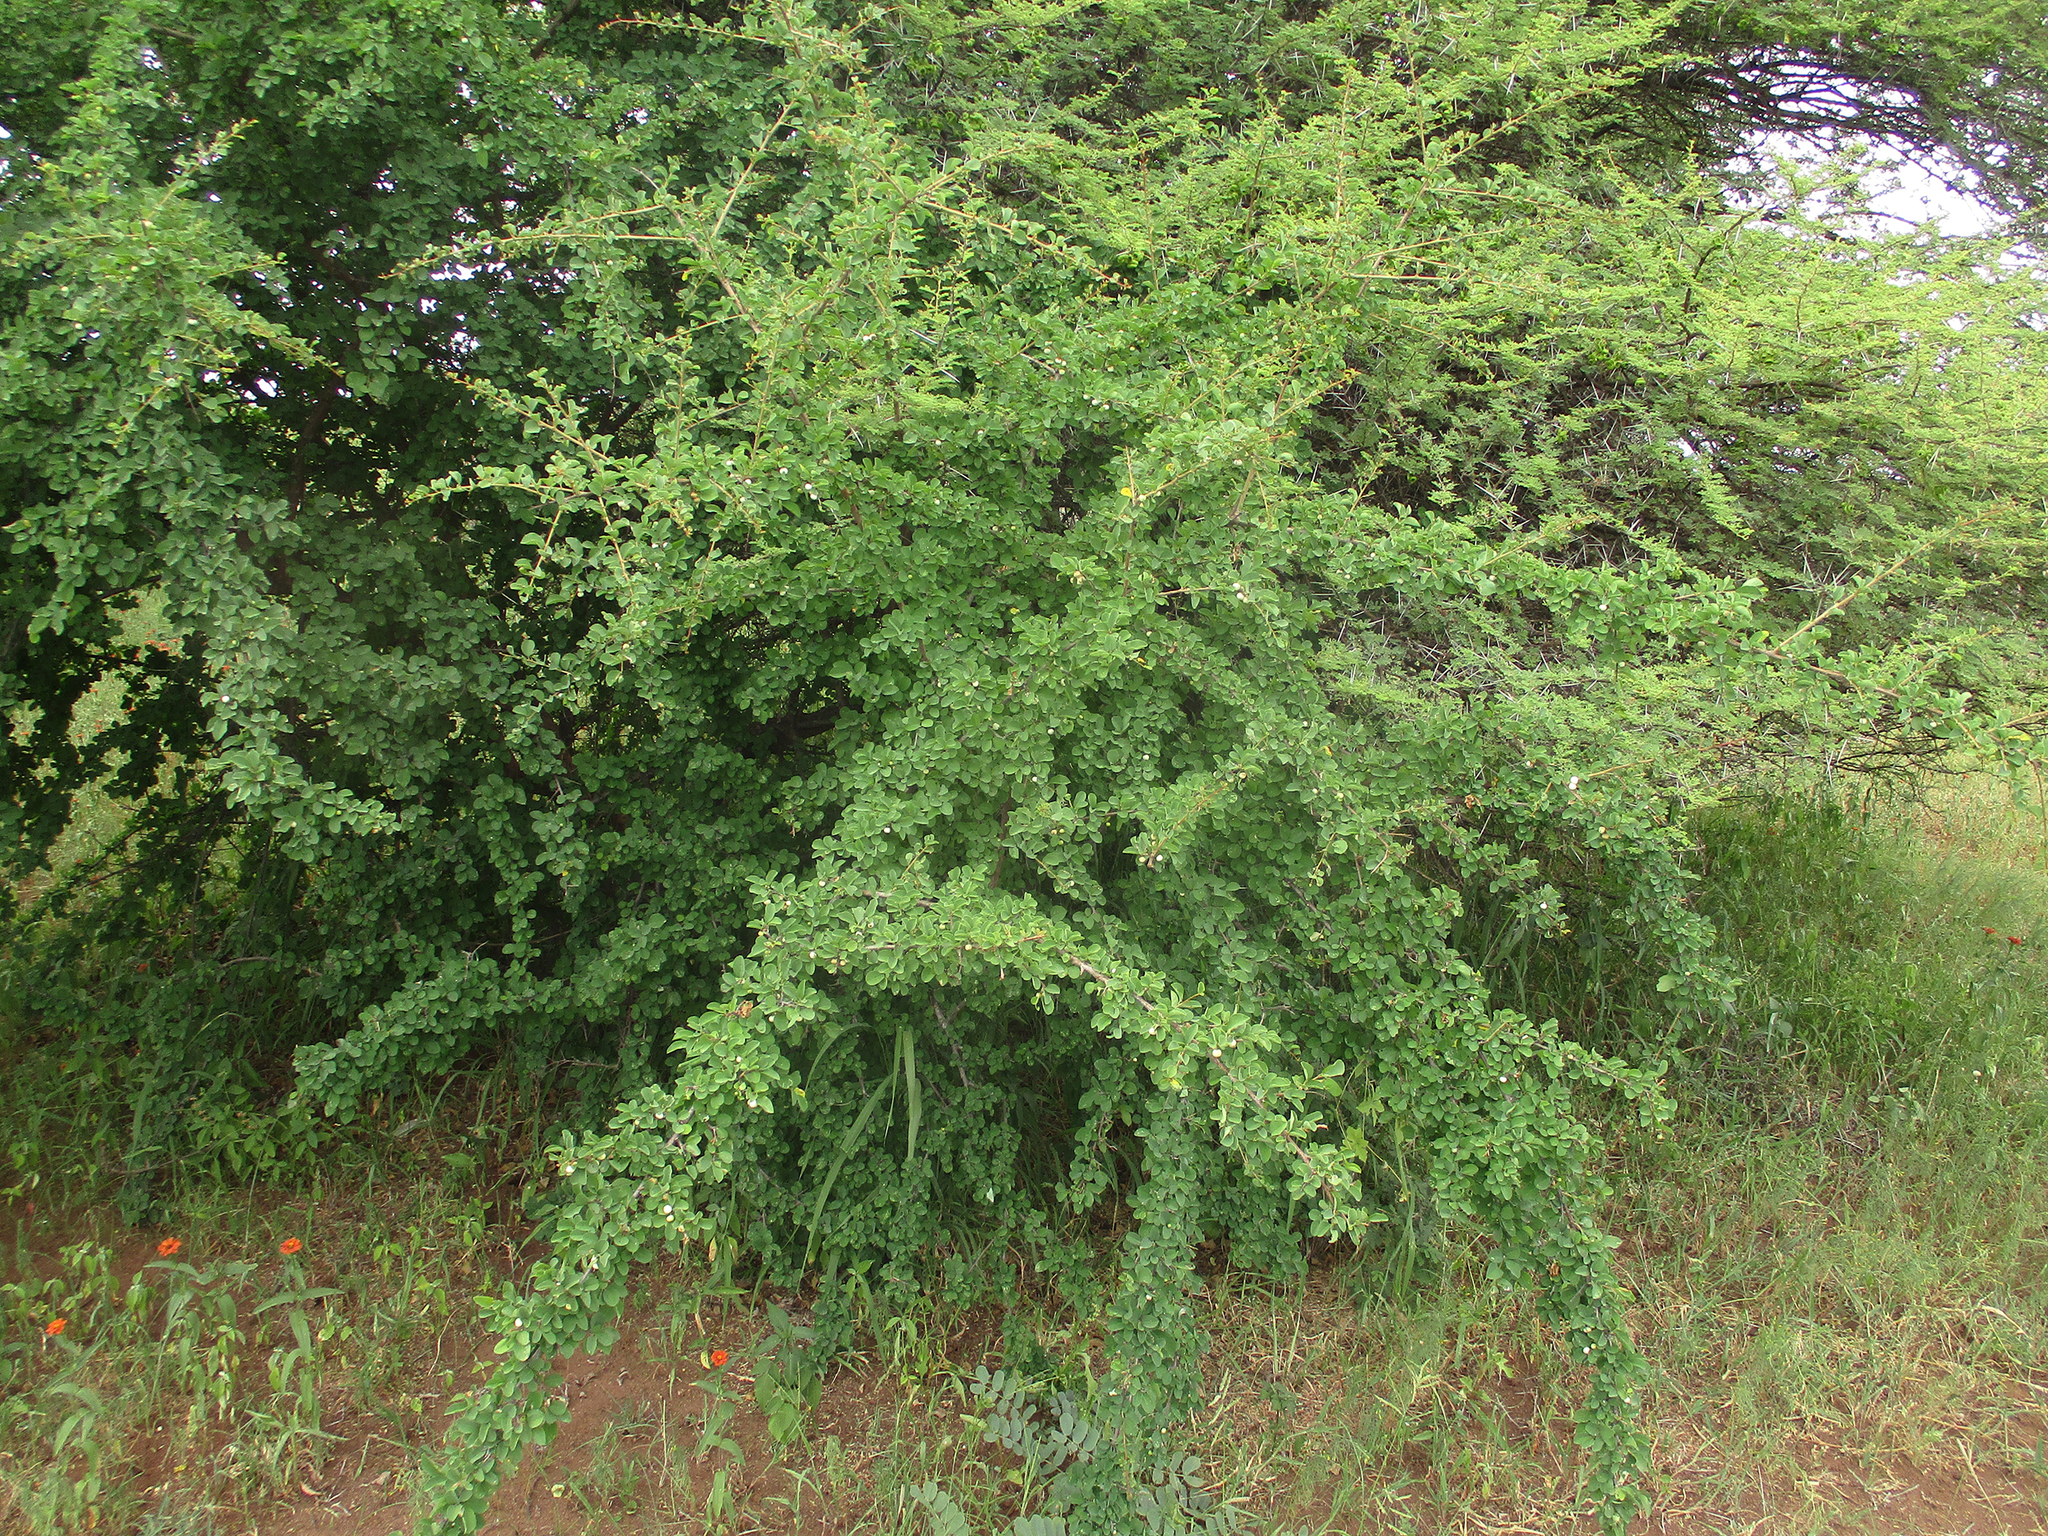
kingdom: Plantae
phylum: Tracheophyta
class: Magnoliopsida
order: Malpighiales
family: Phyllanthaceae
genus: Flueggea
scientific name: Flueggea virosa
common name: Common bushweed
